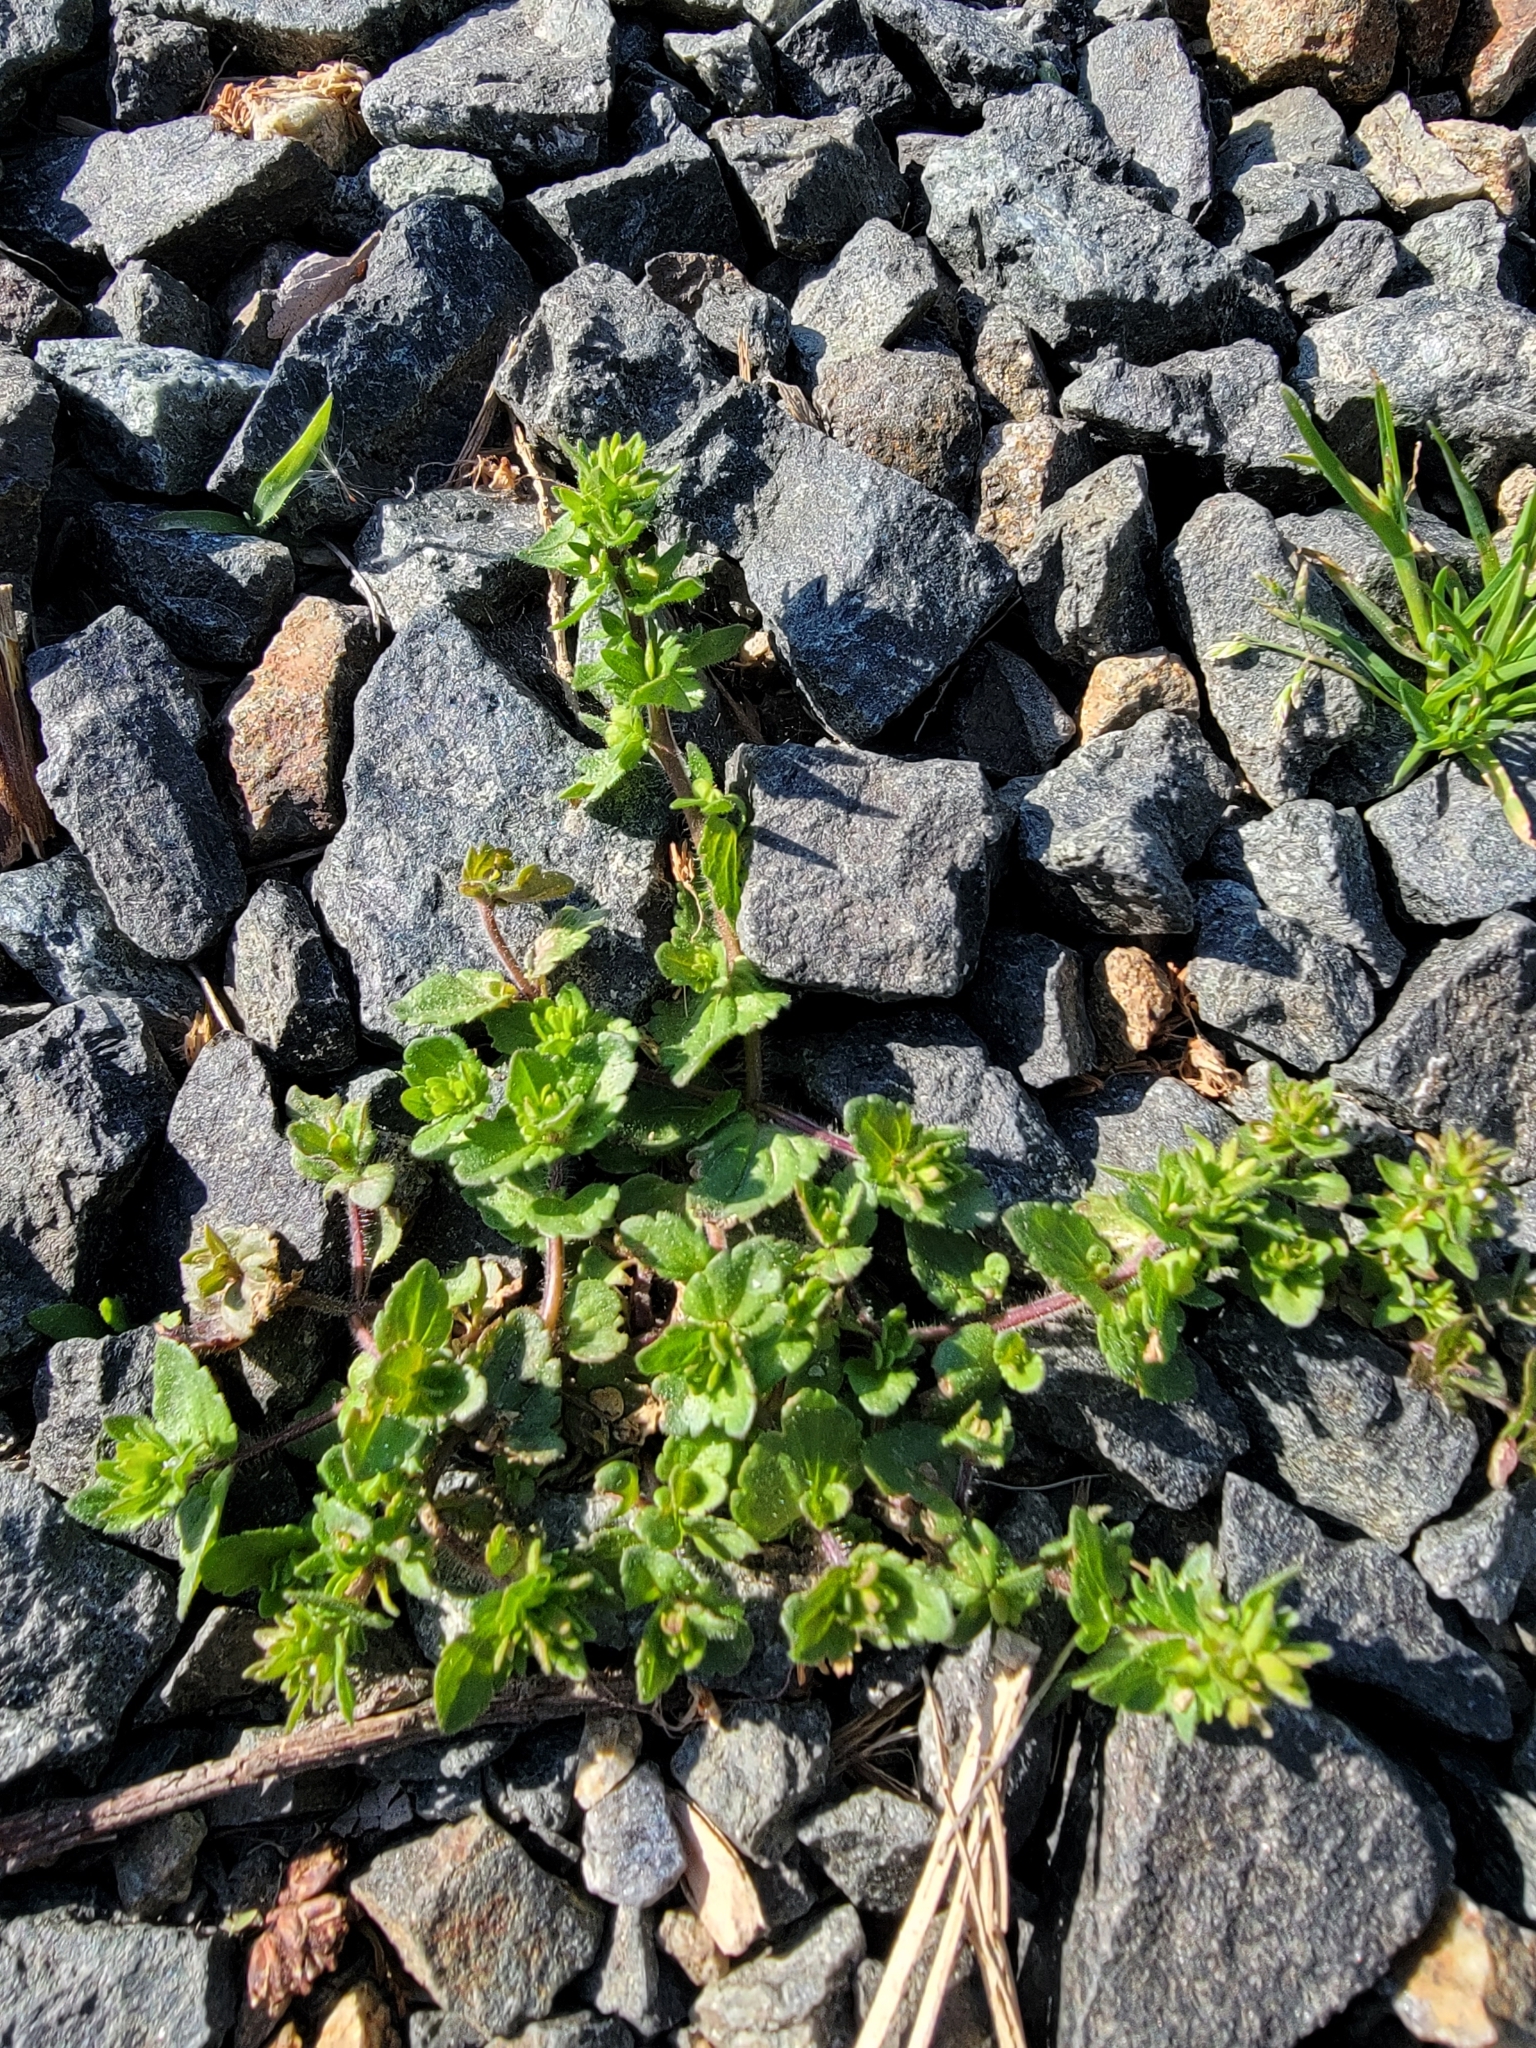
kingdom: Plantae
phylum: Tracheophyta
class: Magnoliopsida
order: Lamiales
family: Plantaginaceae
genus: Veronica
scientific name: Veronica arvensis
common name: Corn speedwell
